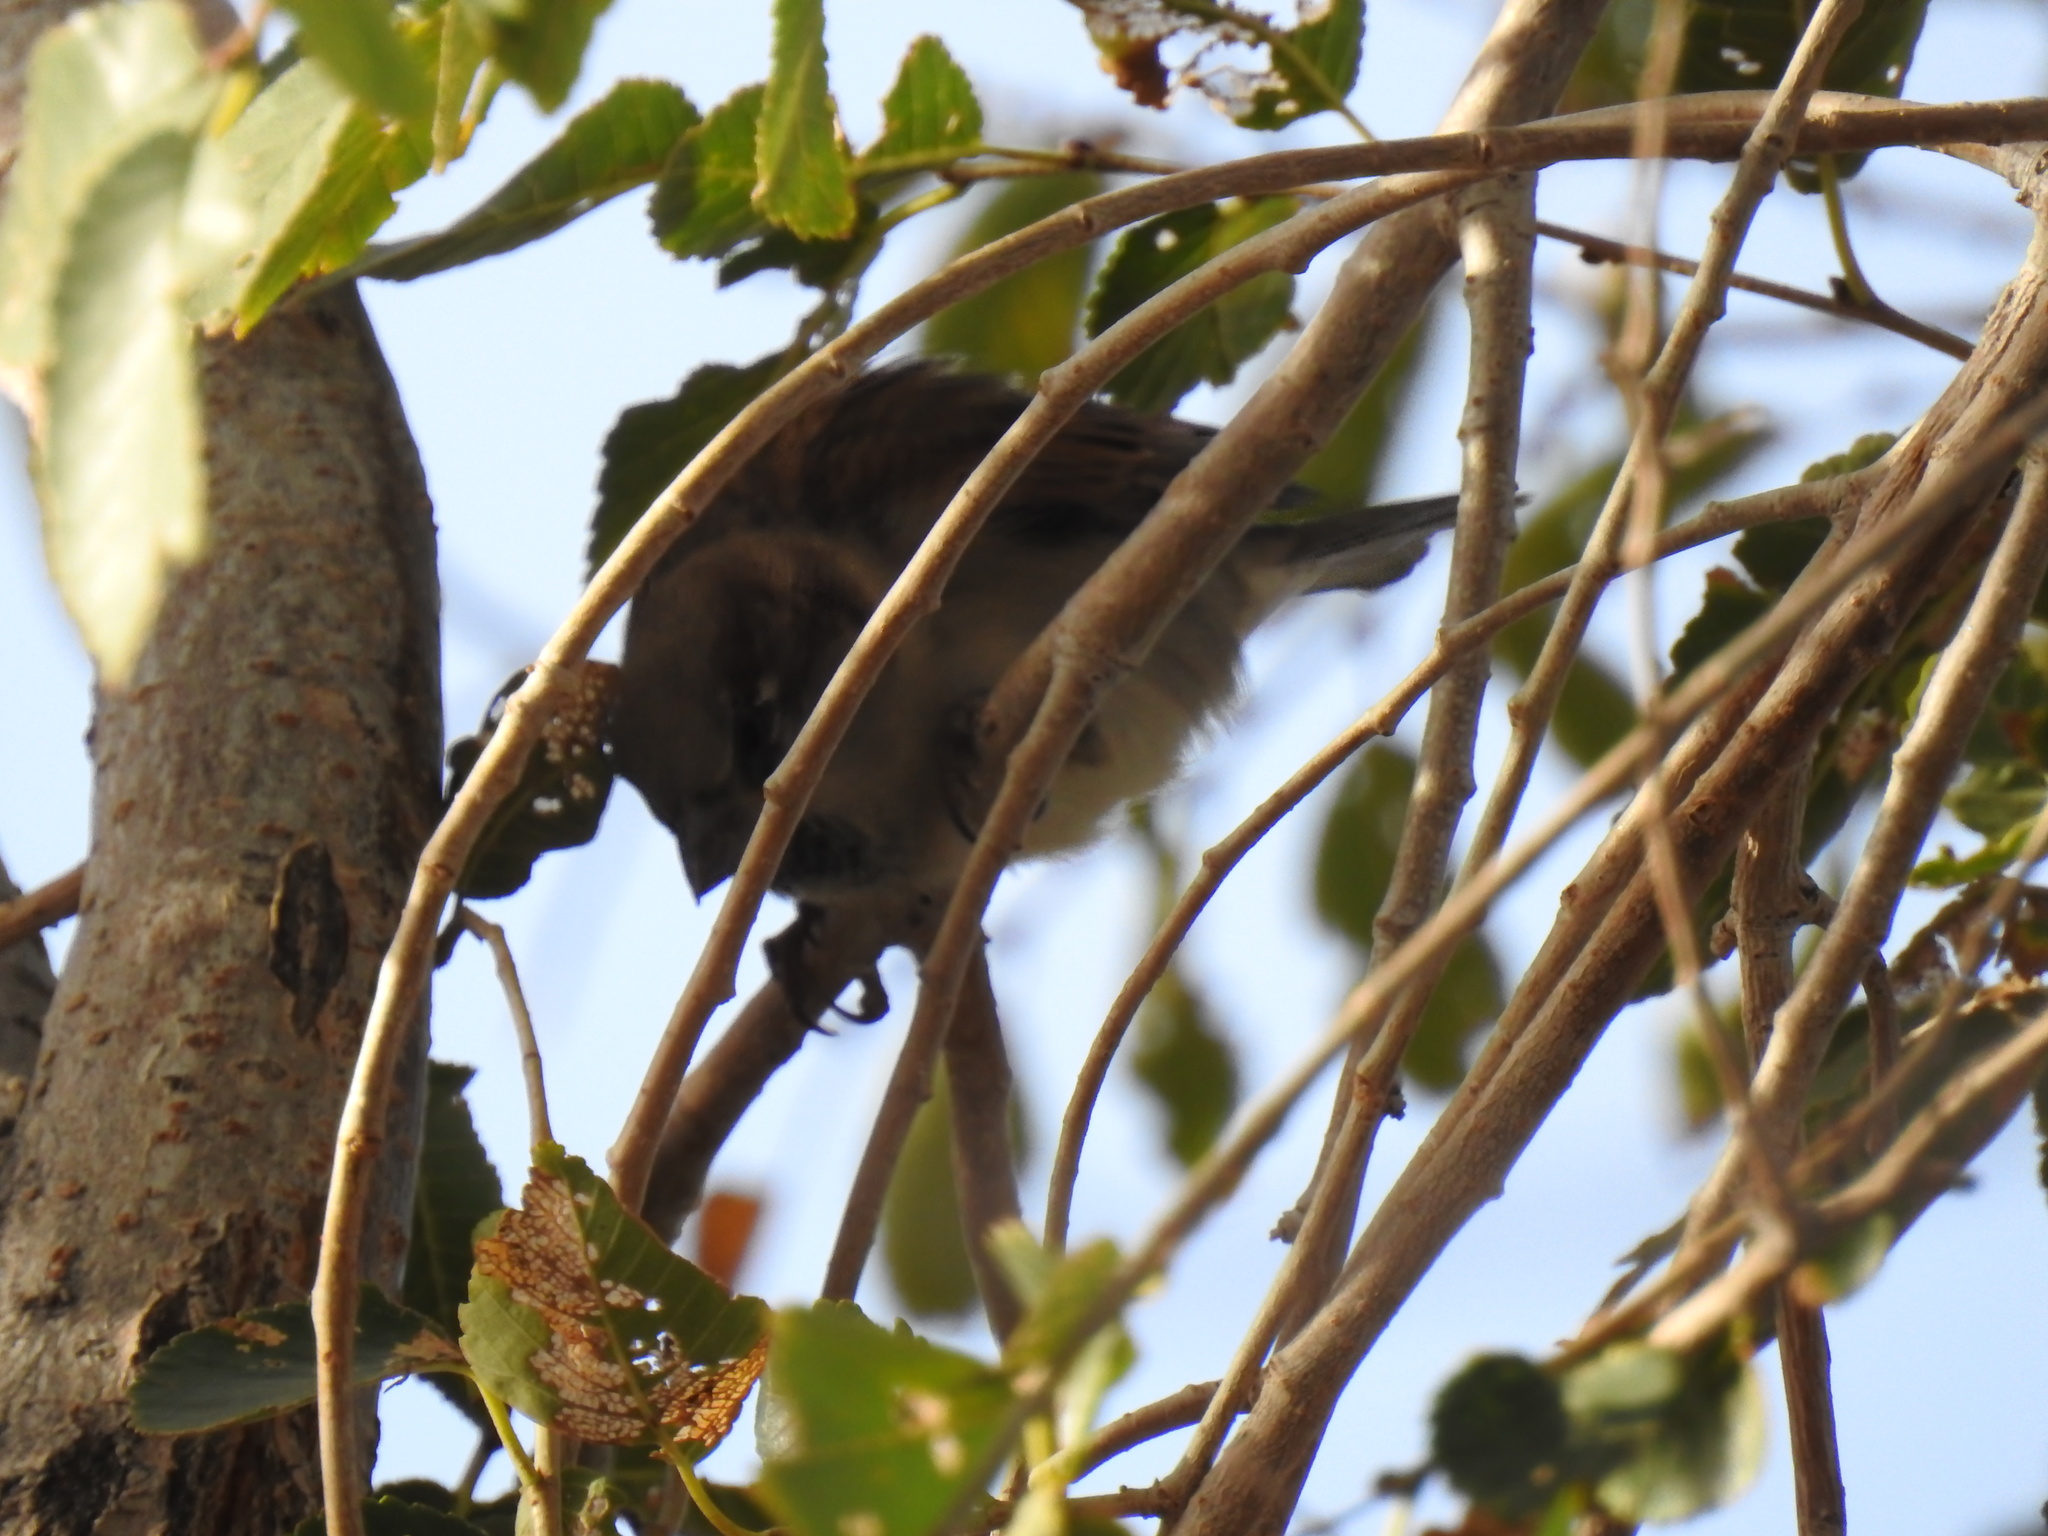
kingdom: Animalia
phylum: Chordata
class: Aves
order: Passeriformes
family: Passeridae
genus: Passer
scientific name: Passer domesticus
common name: House sparrow
